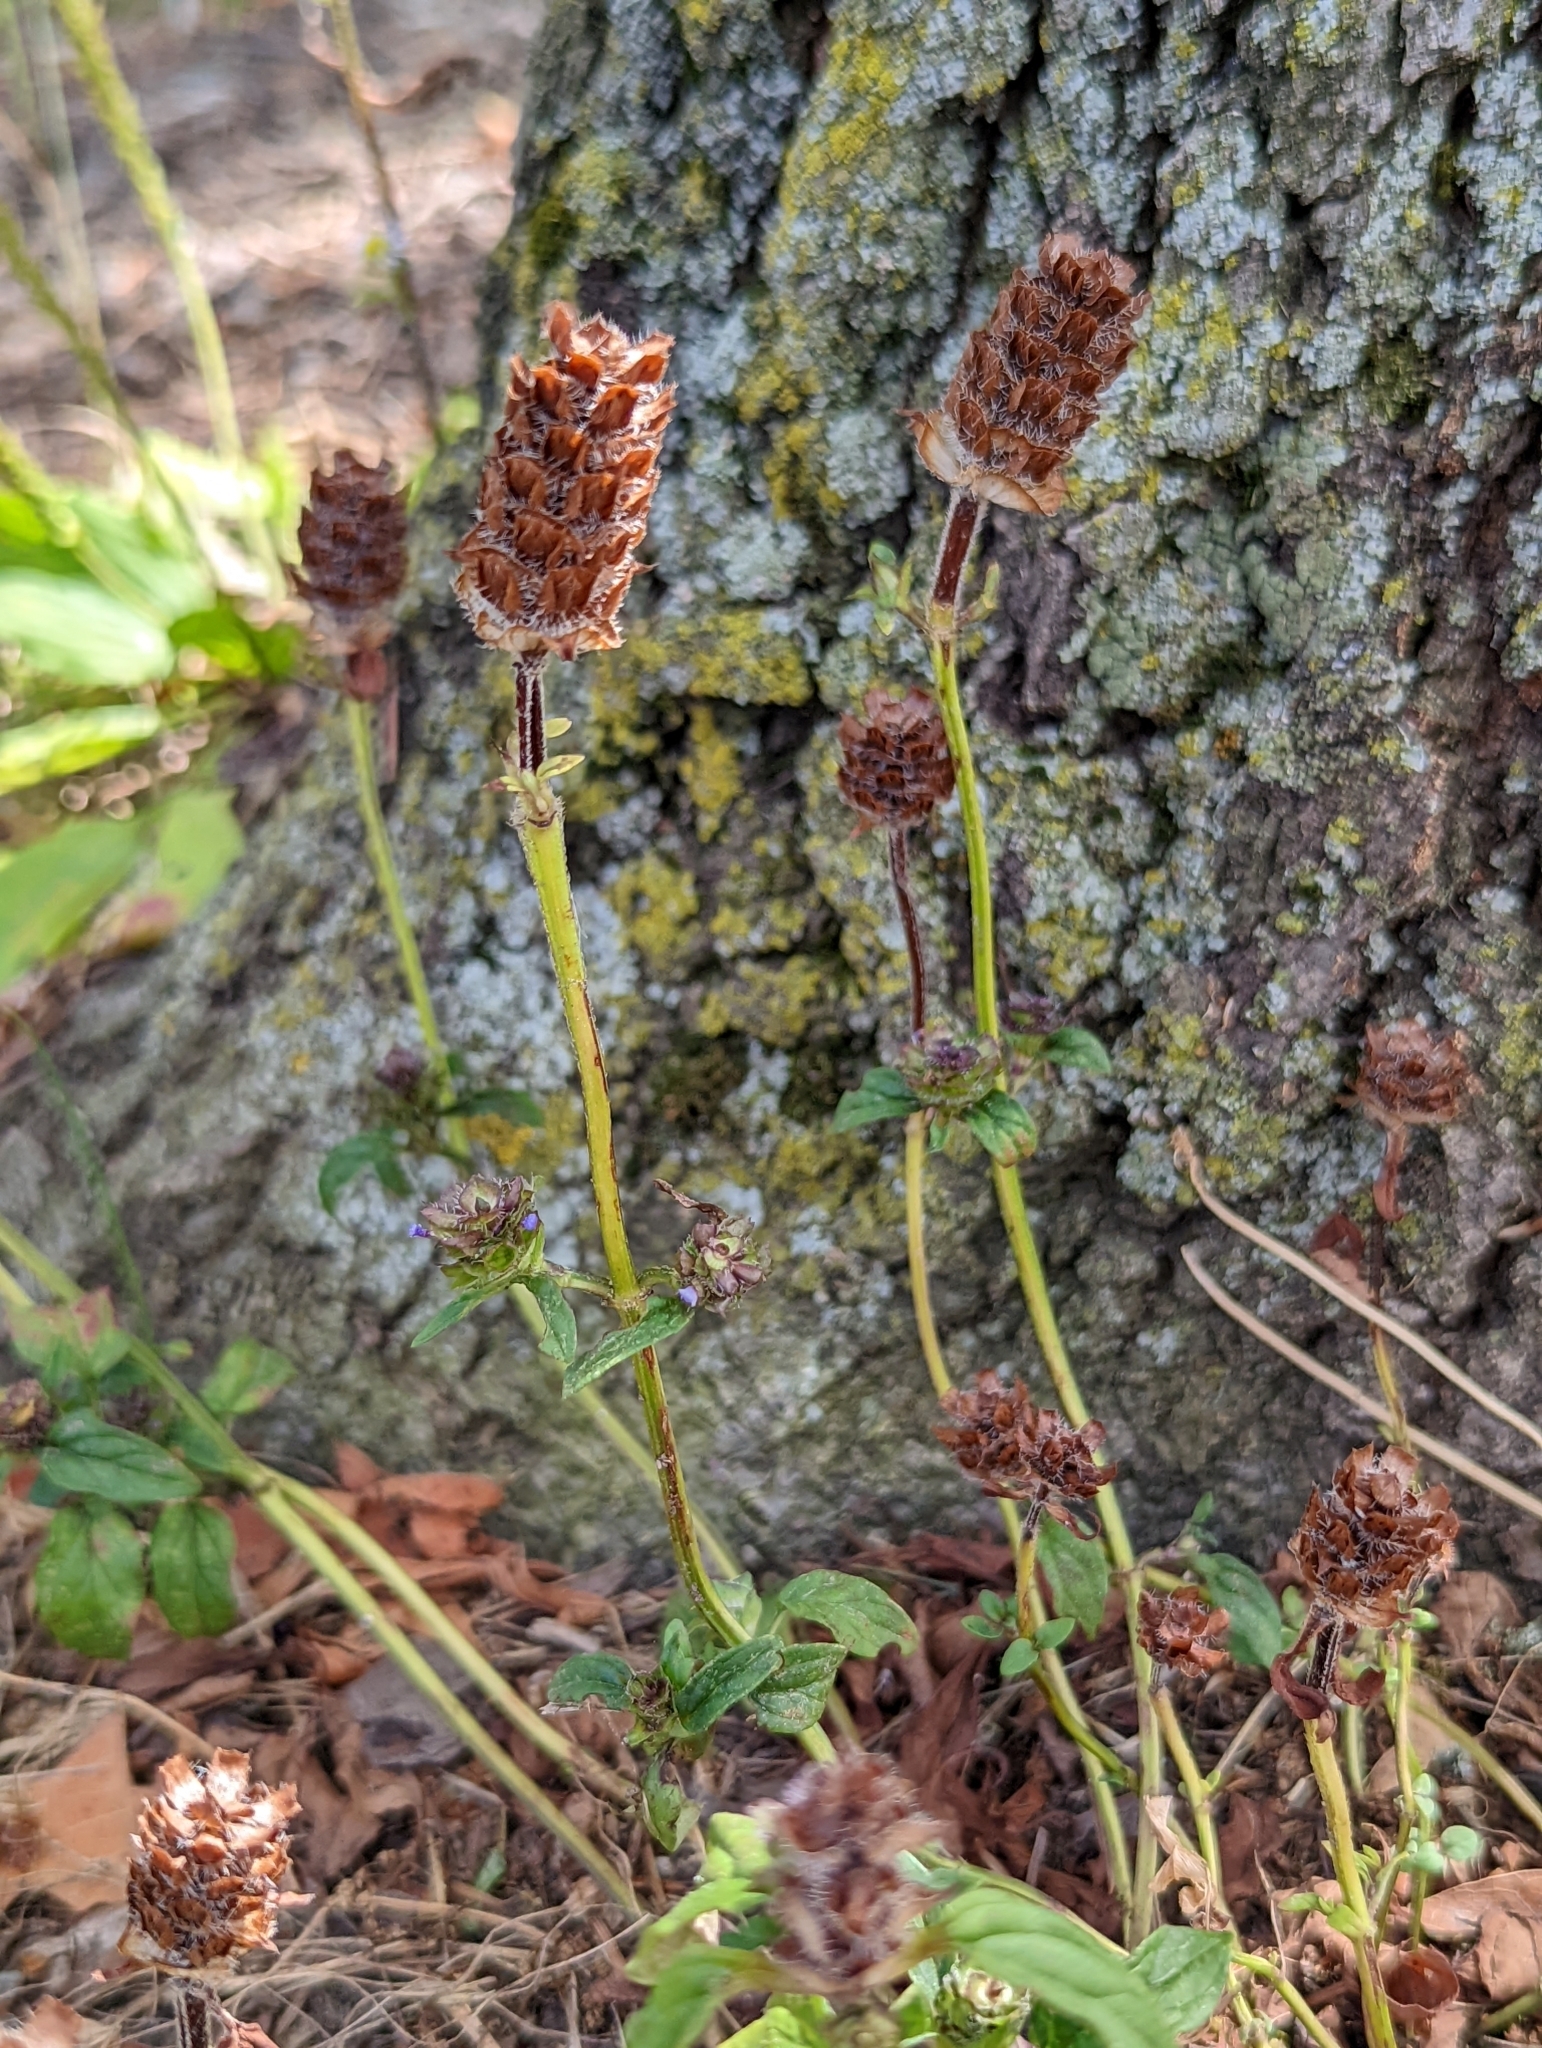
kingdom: Plantae
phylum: Tracheophyta
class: Magnoliopsida
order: Lamiales
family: Lamiaceae
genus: Prunella
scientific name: Prunella vulgaris
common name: Heal-all
